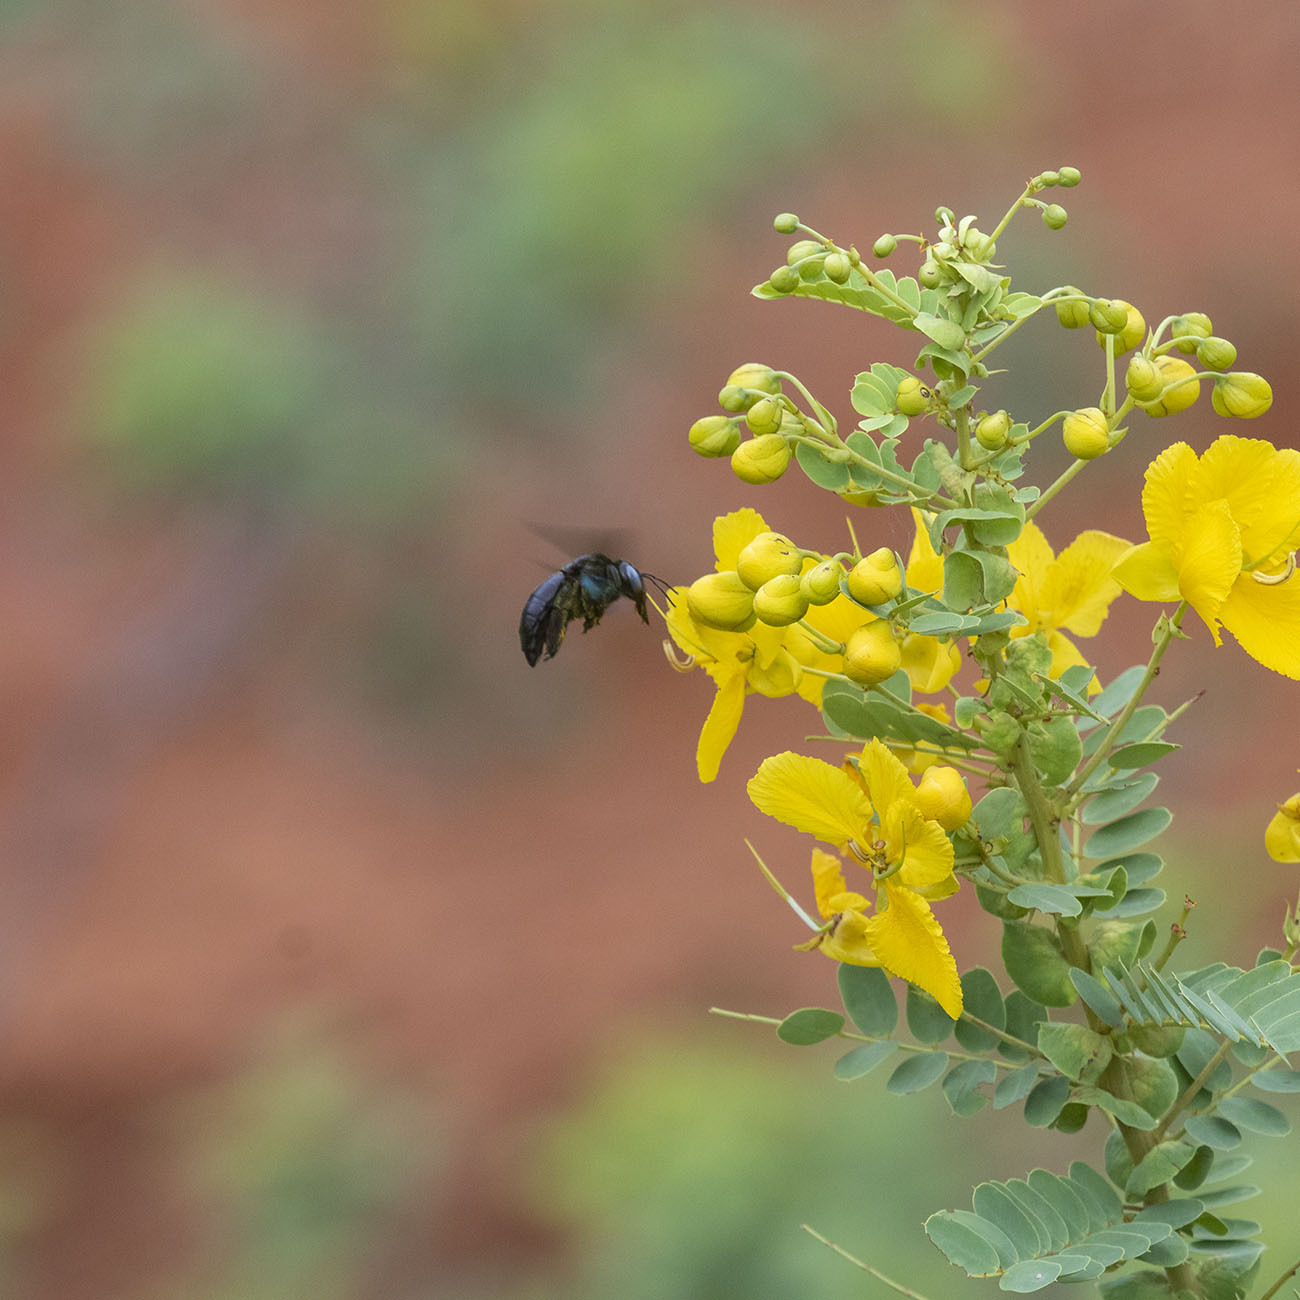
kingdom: Animalia
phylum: Arthropoda
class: Insecta
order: Hymenoptera
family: Apidae
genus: Xylocopa
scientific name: Xylocopa tenuiscapa
